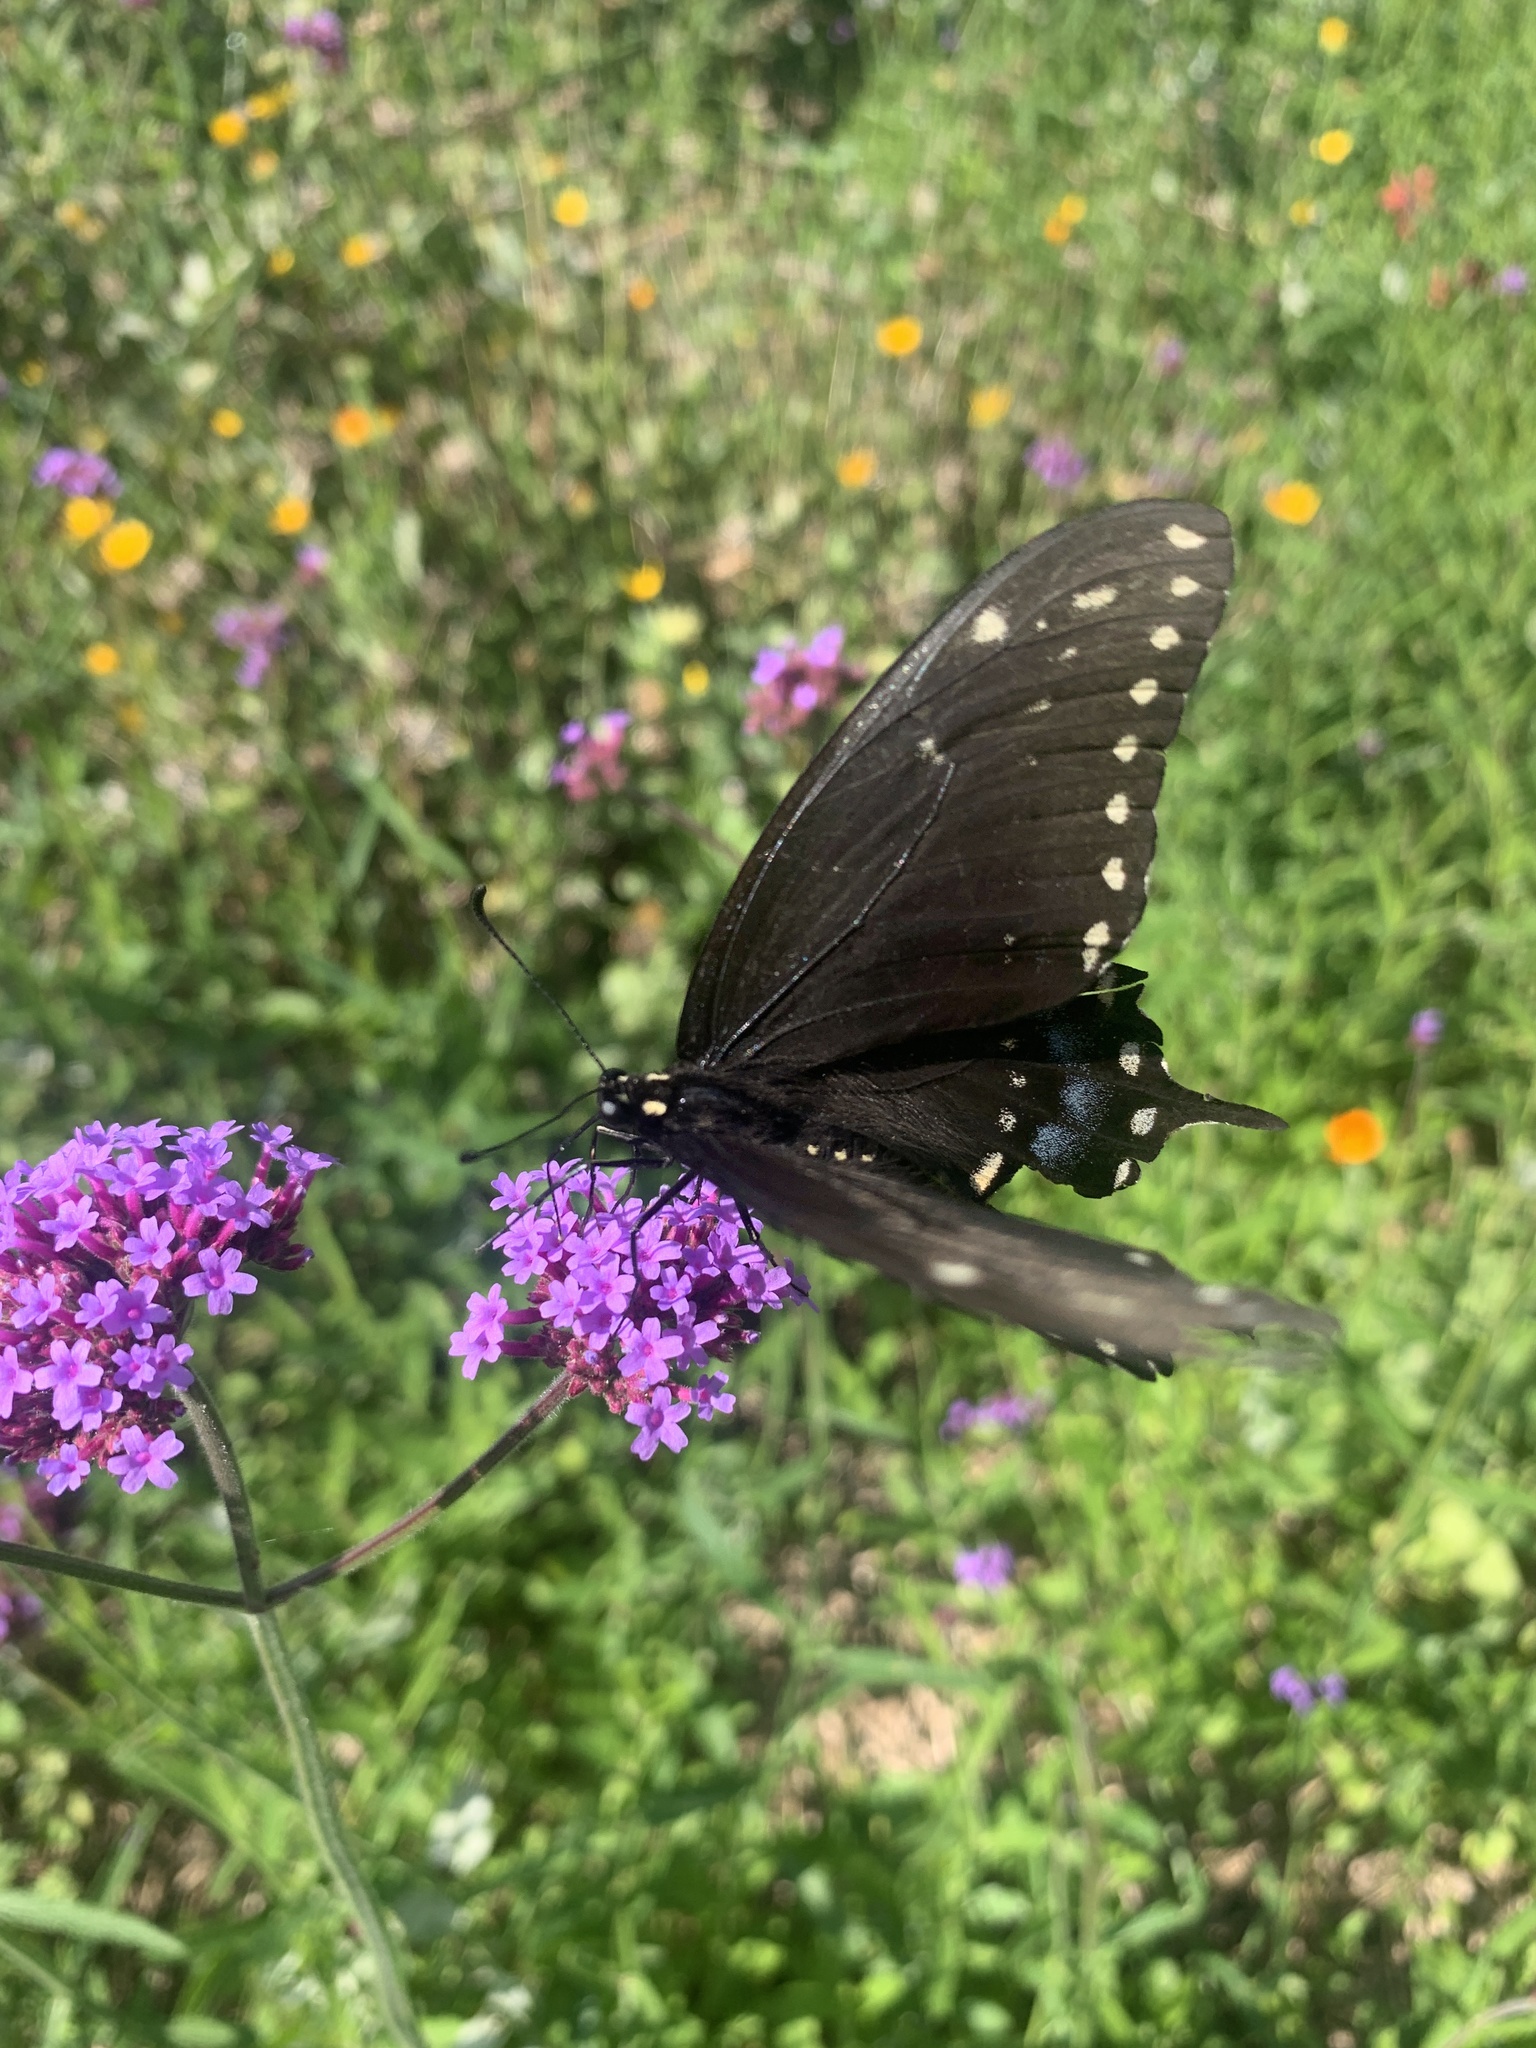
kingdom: Animalia
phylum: Arthropoda
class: Insecta
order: Lepidoptera
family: Papilionidae
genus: Papilio
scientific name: Papilio polyxenes
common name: Black swallowtail
